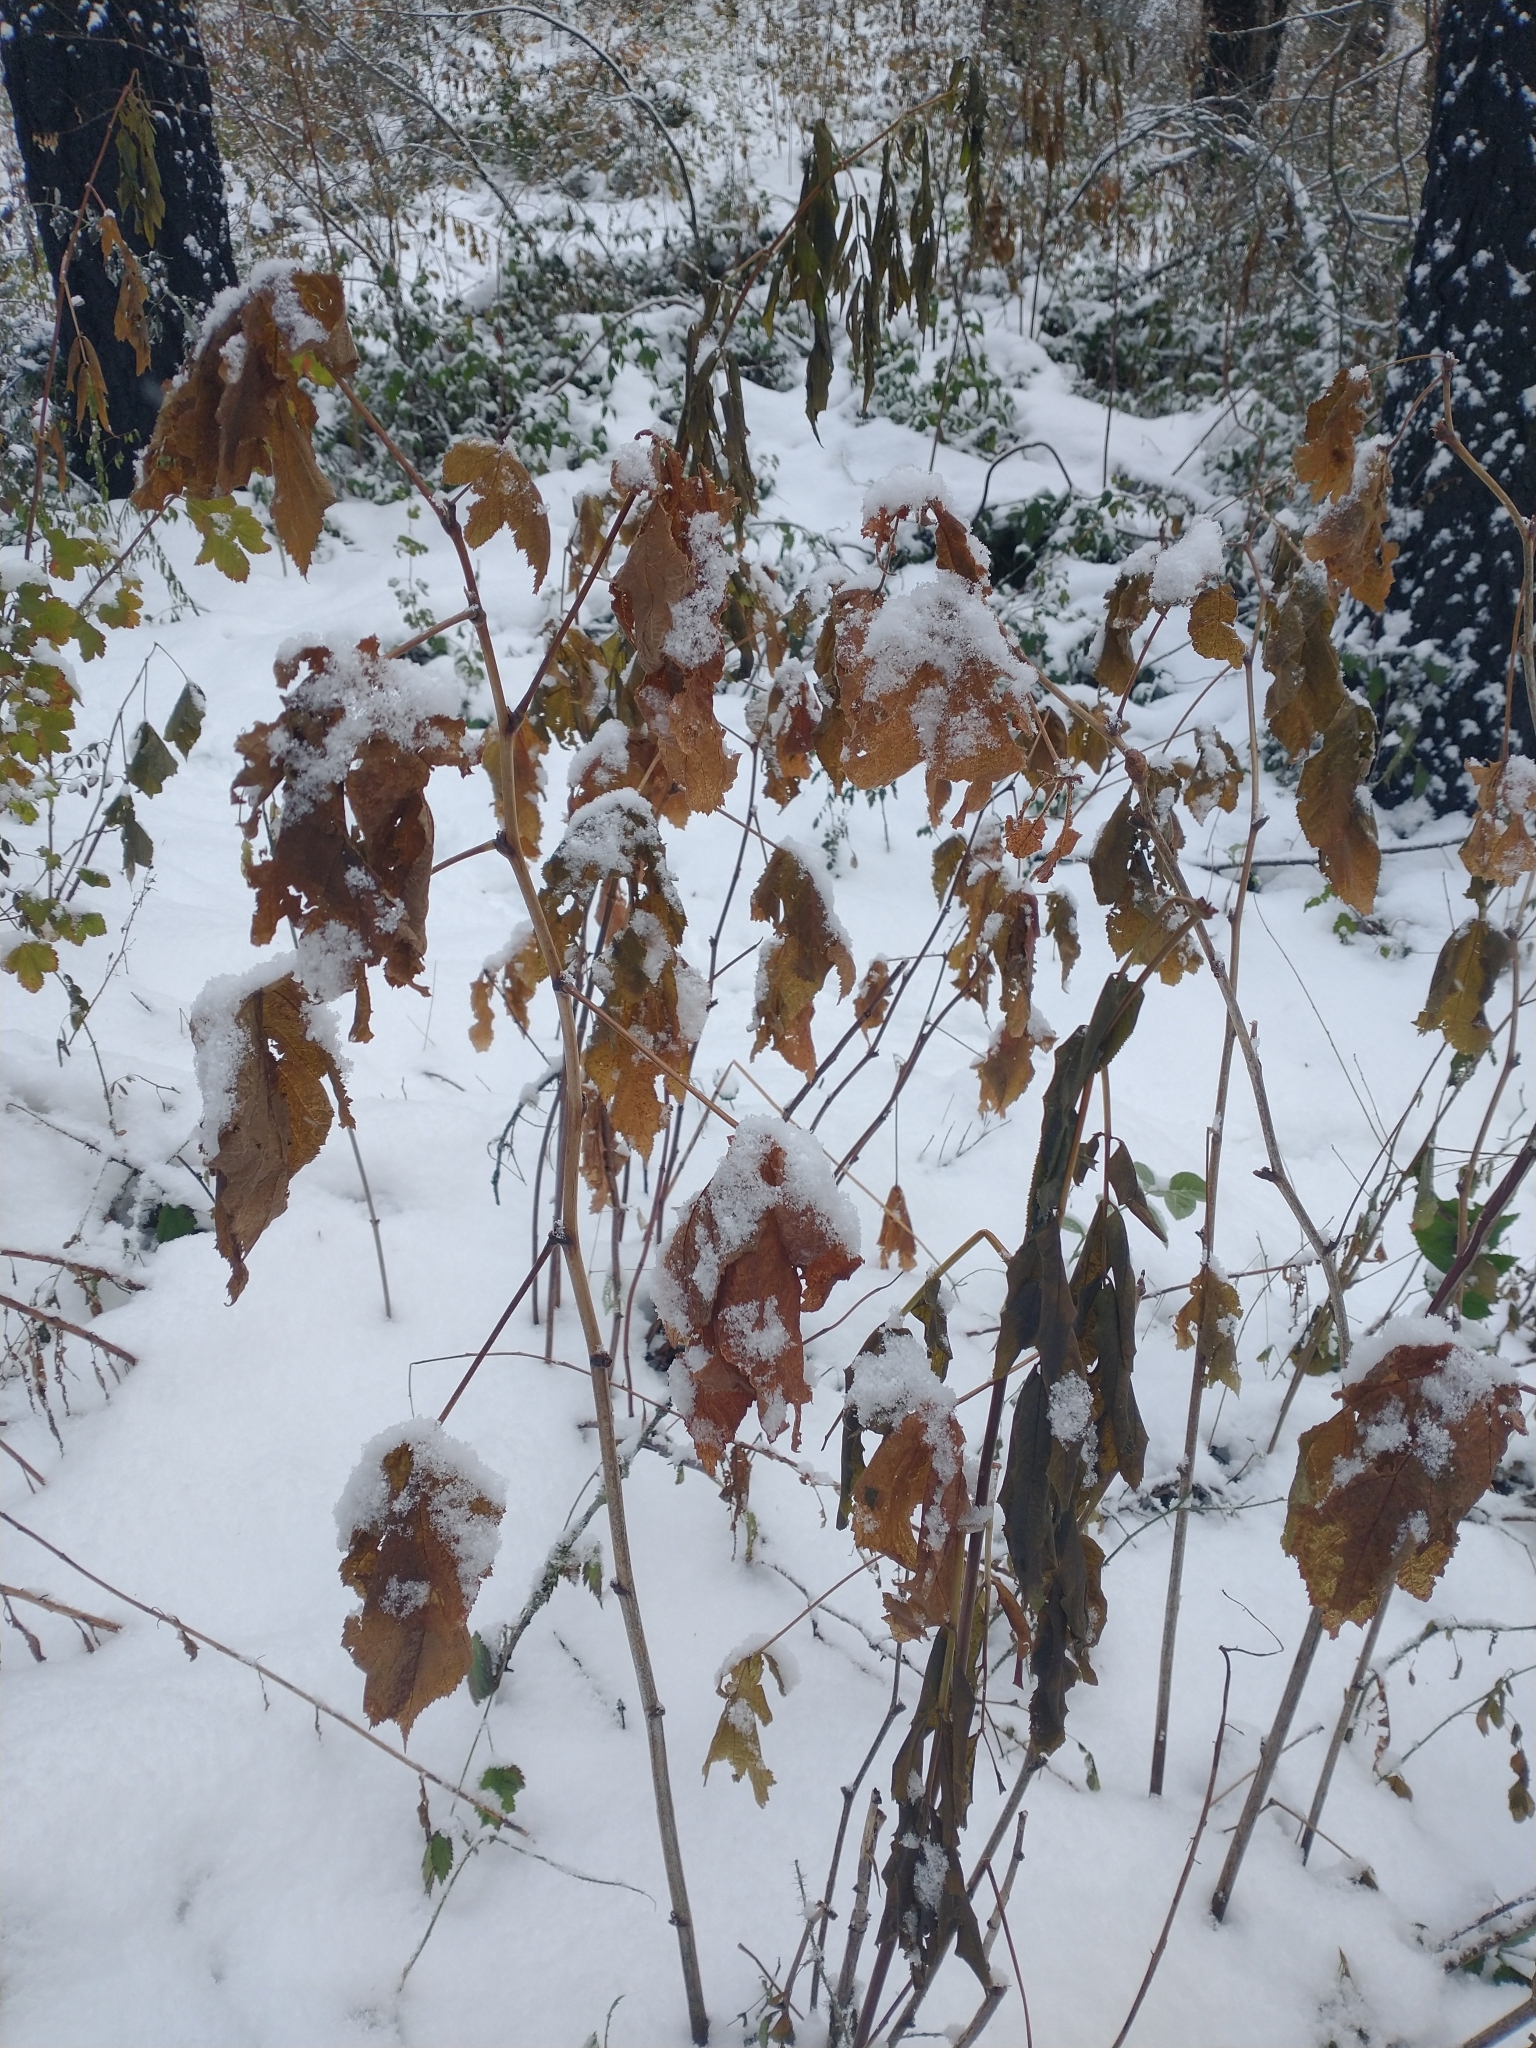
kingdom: Plantae
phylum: Tracheophyta
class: Magnoliopsida
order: Rosales
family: Rosaceae
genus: Rubus
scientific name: Rubus parviflorus
